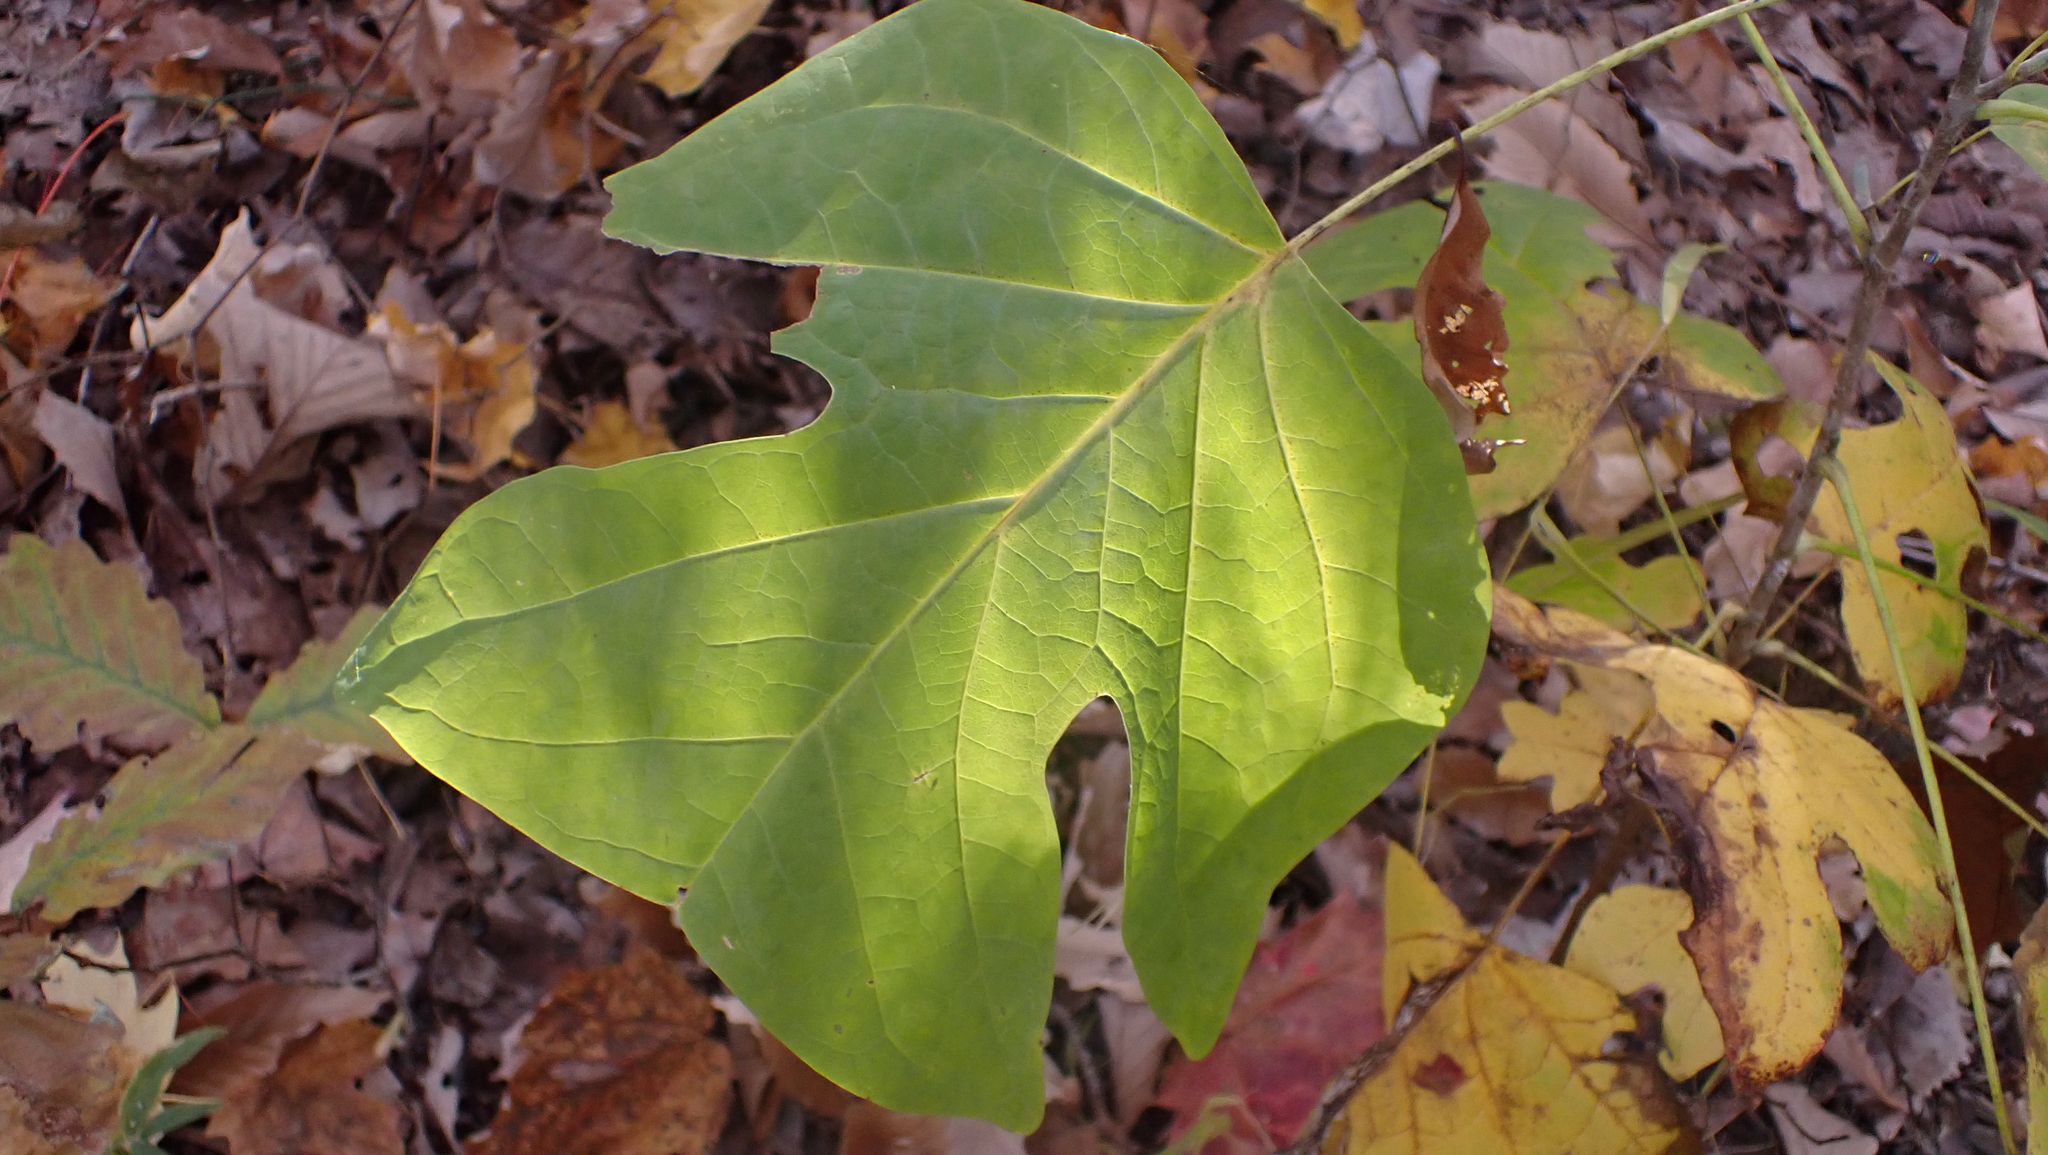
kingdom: Plantae
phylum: Tracheophyta
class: Magnoliopsida
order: Magnoliales
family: Magnoliaceae
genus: Liriodendron
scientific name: Liriodendron tulipifera
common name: Tulip tree
